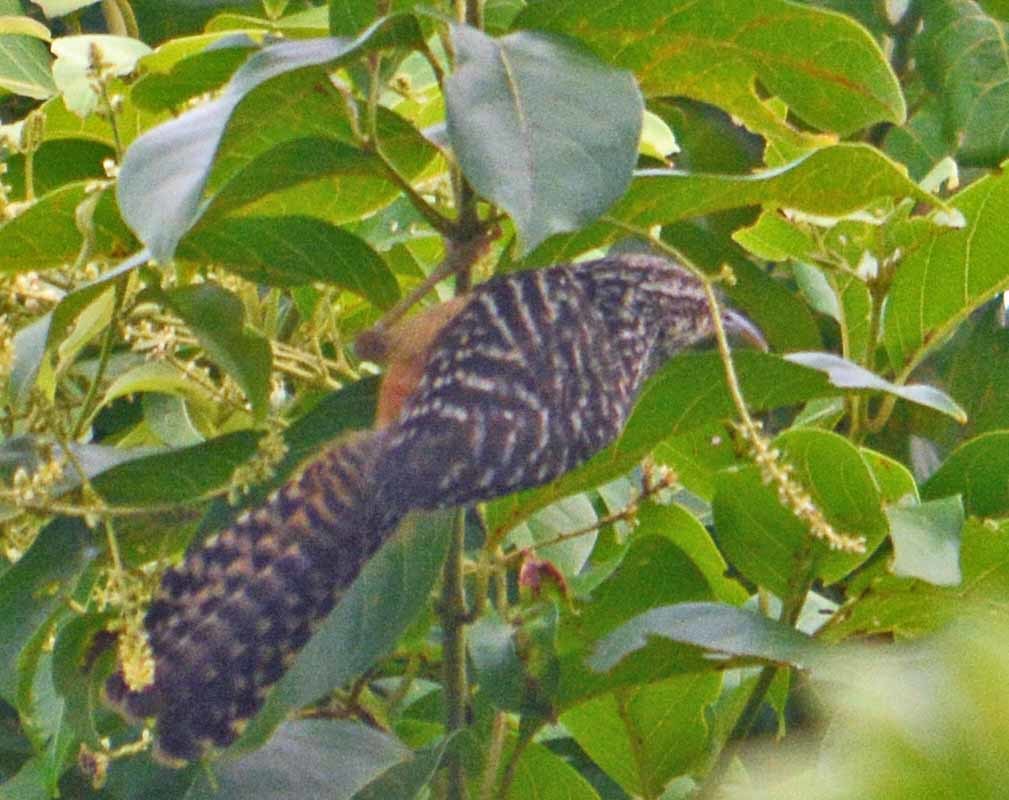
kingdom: Animalia
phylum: Chordata
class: Aves
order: Passeriformes
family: Troglodytidae
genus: Campylorhynchus
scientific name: Campylorhynchus zonatus
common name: Band-backed wren
